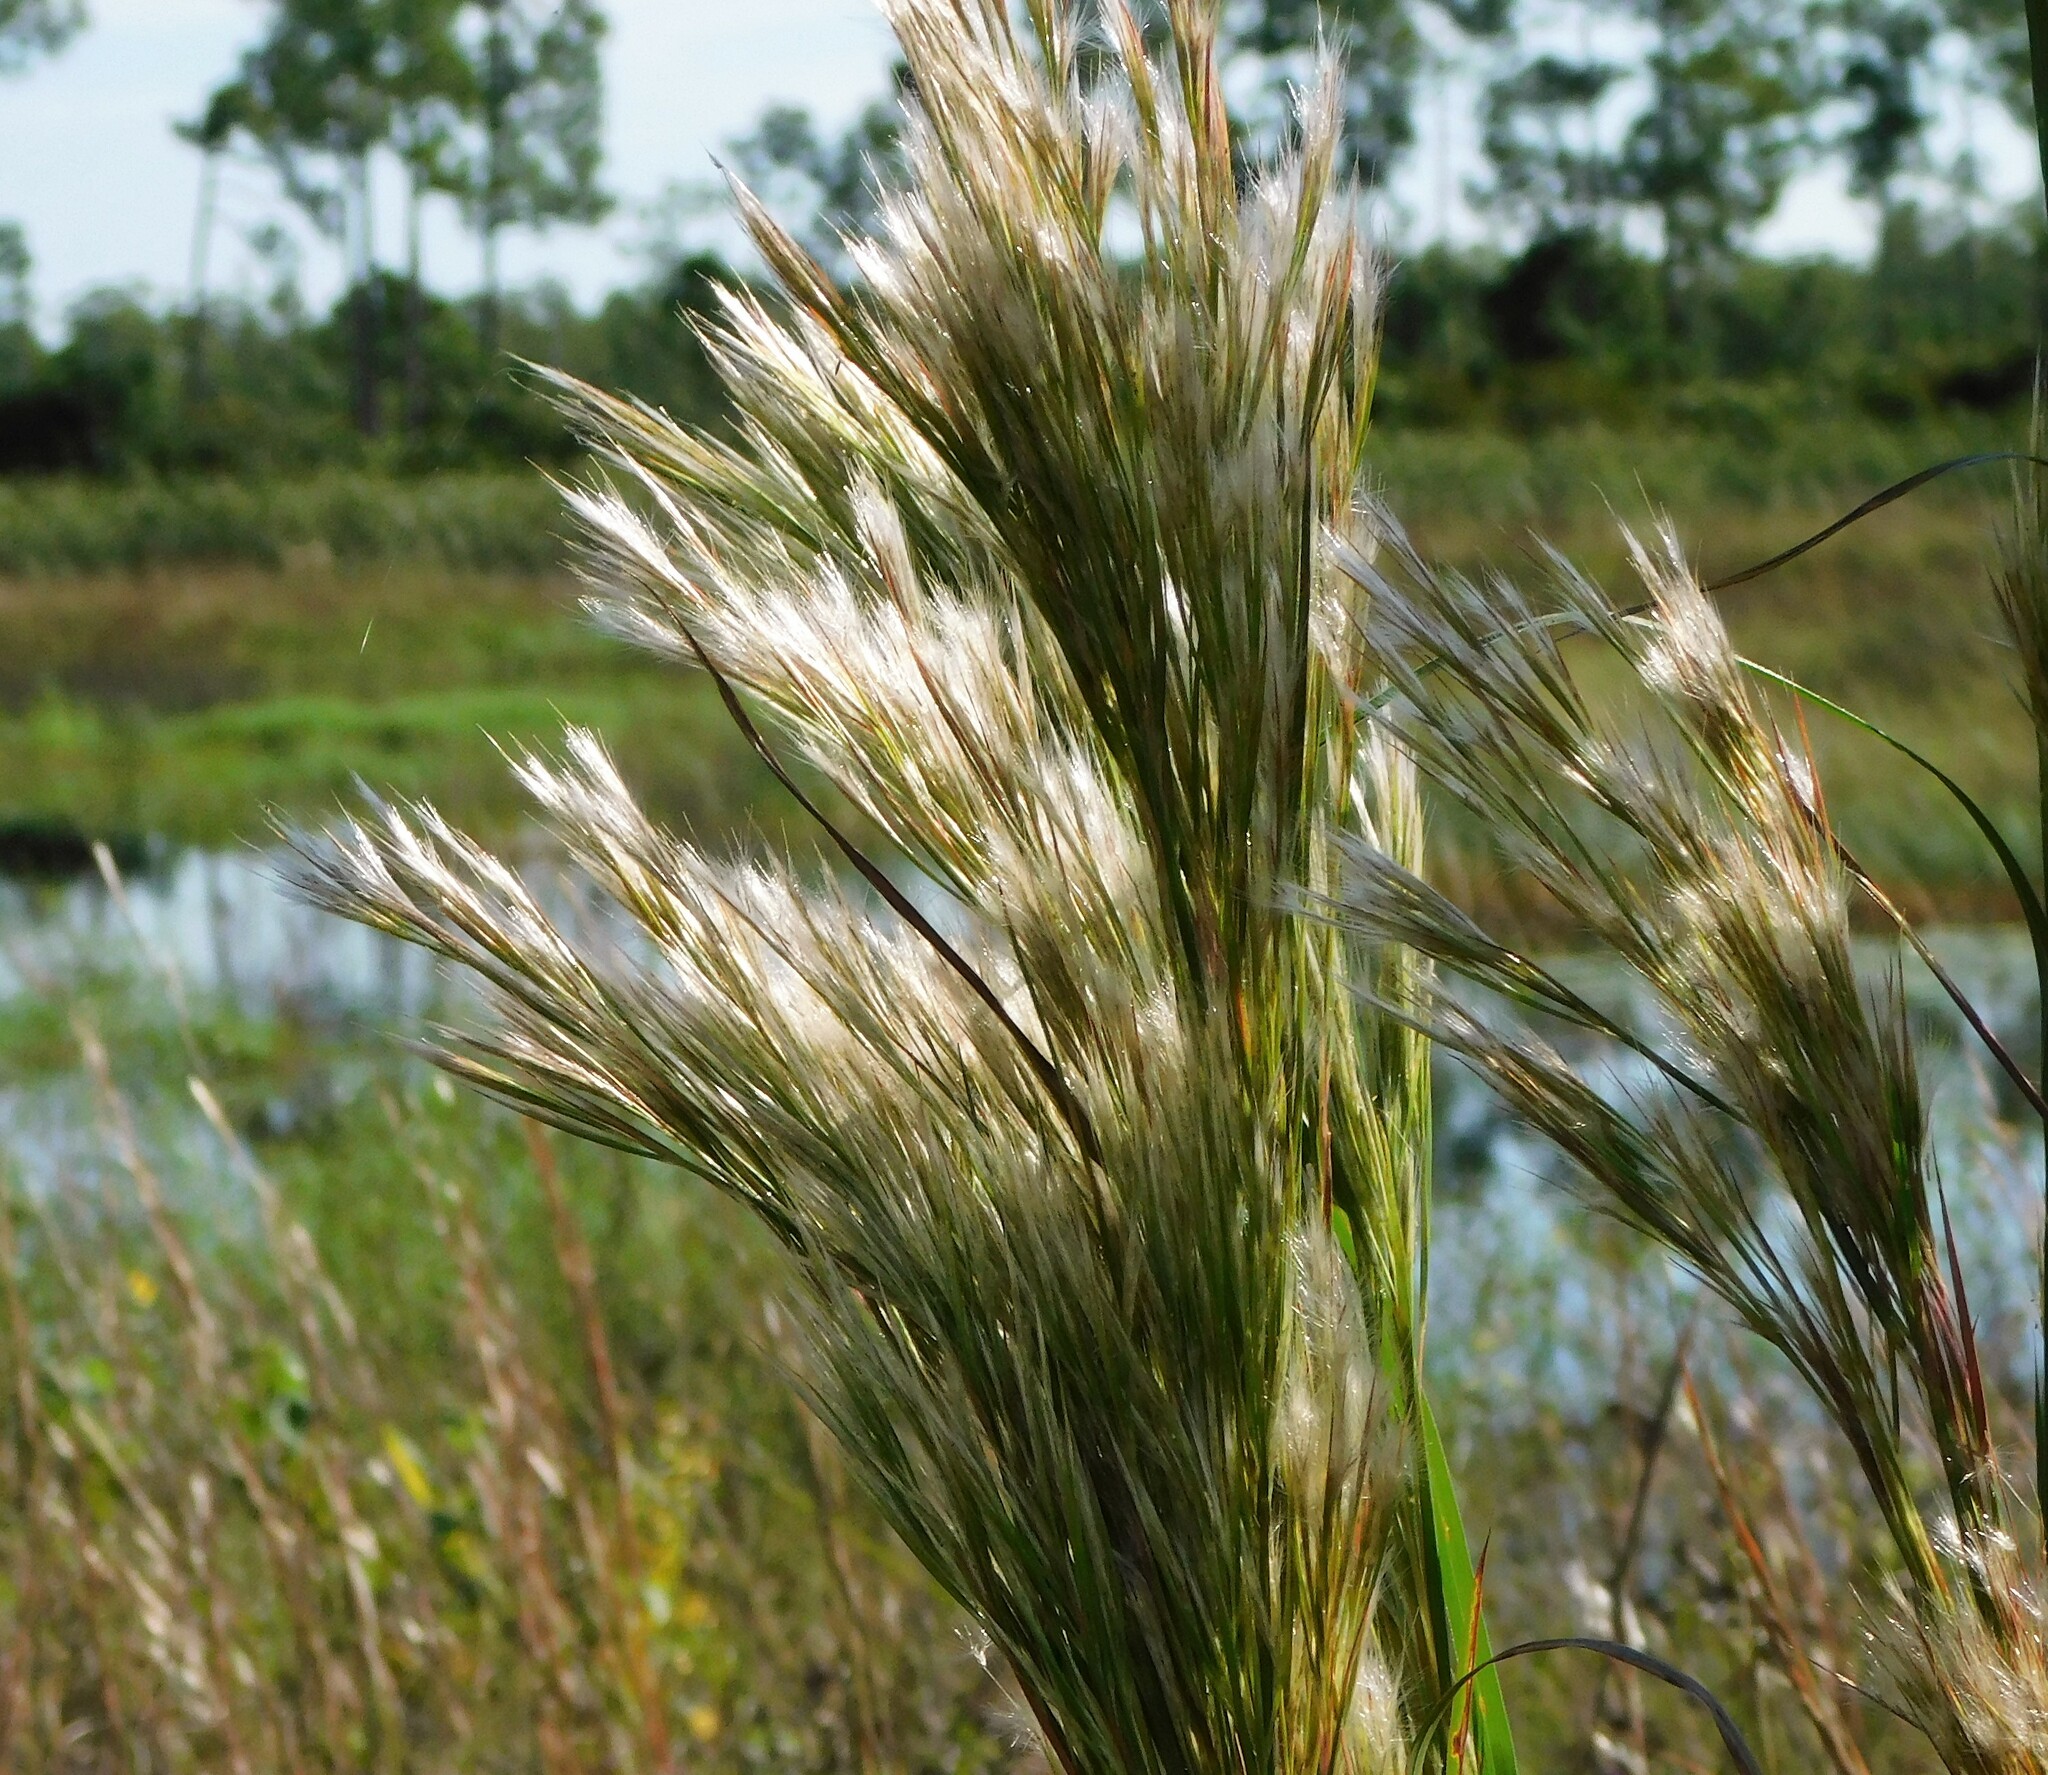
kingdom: Plantae
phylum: Tracheophyta
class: Liliopsida
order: Poales
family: Poaceae
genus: Andropogon
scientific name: Andropogon tenuispatheus
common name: Bushy bluestem
